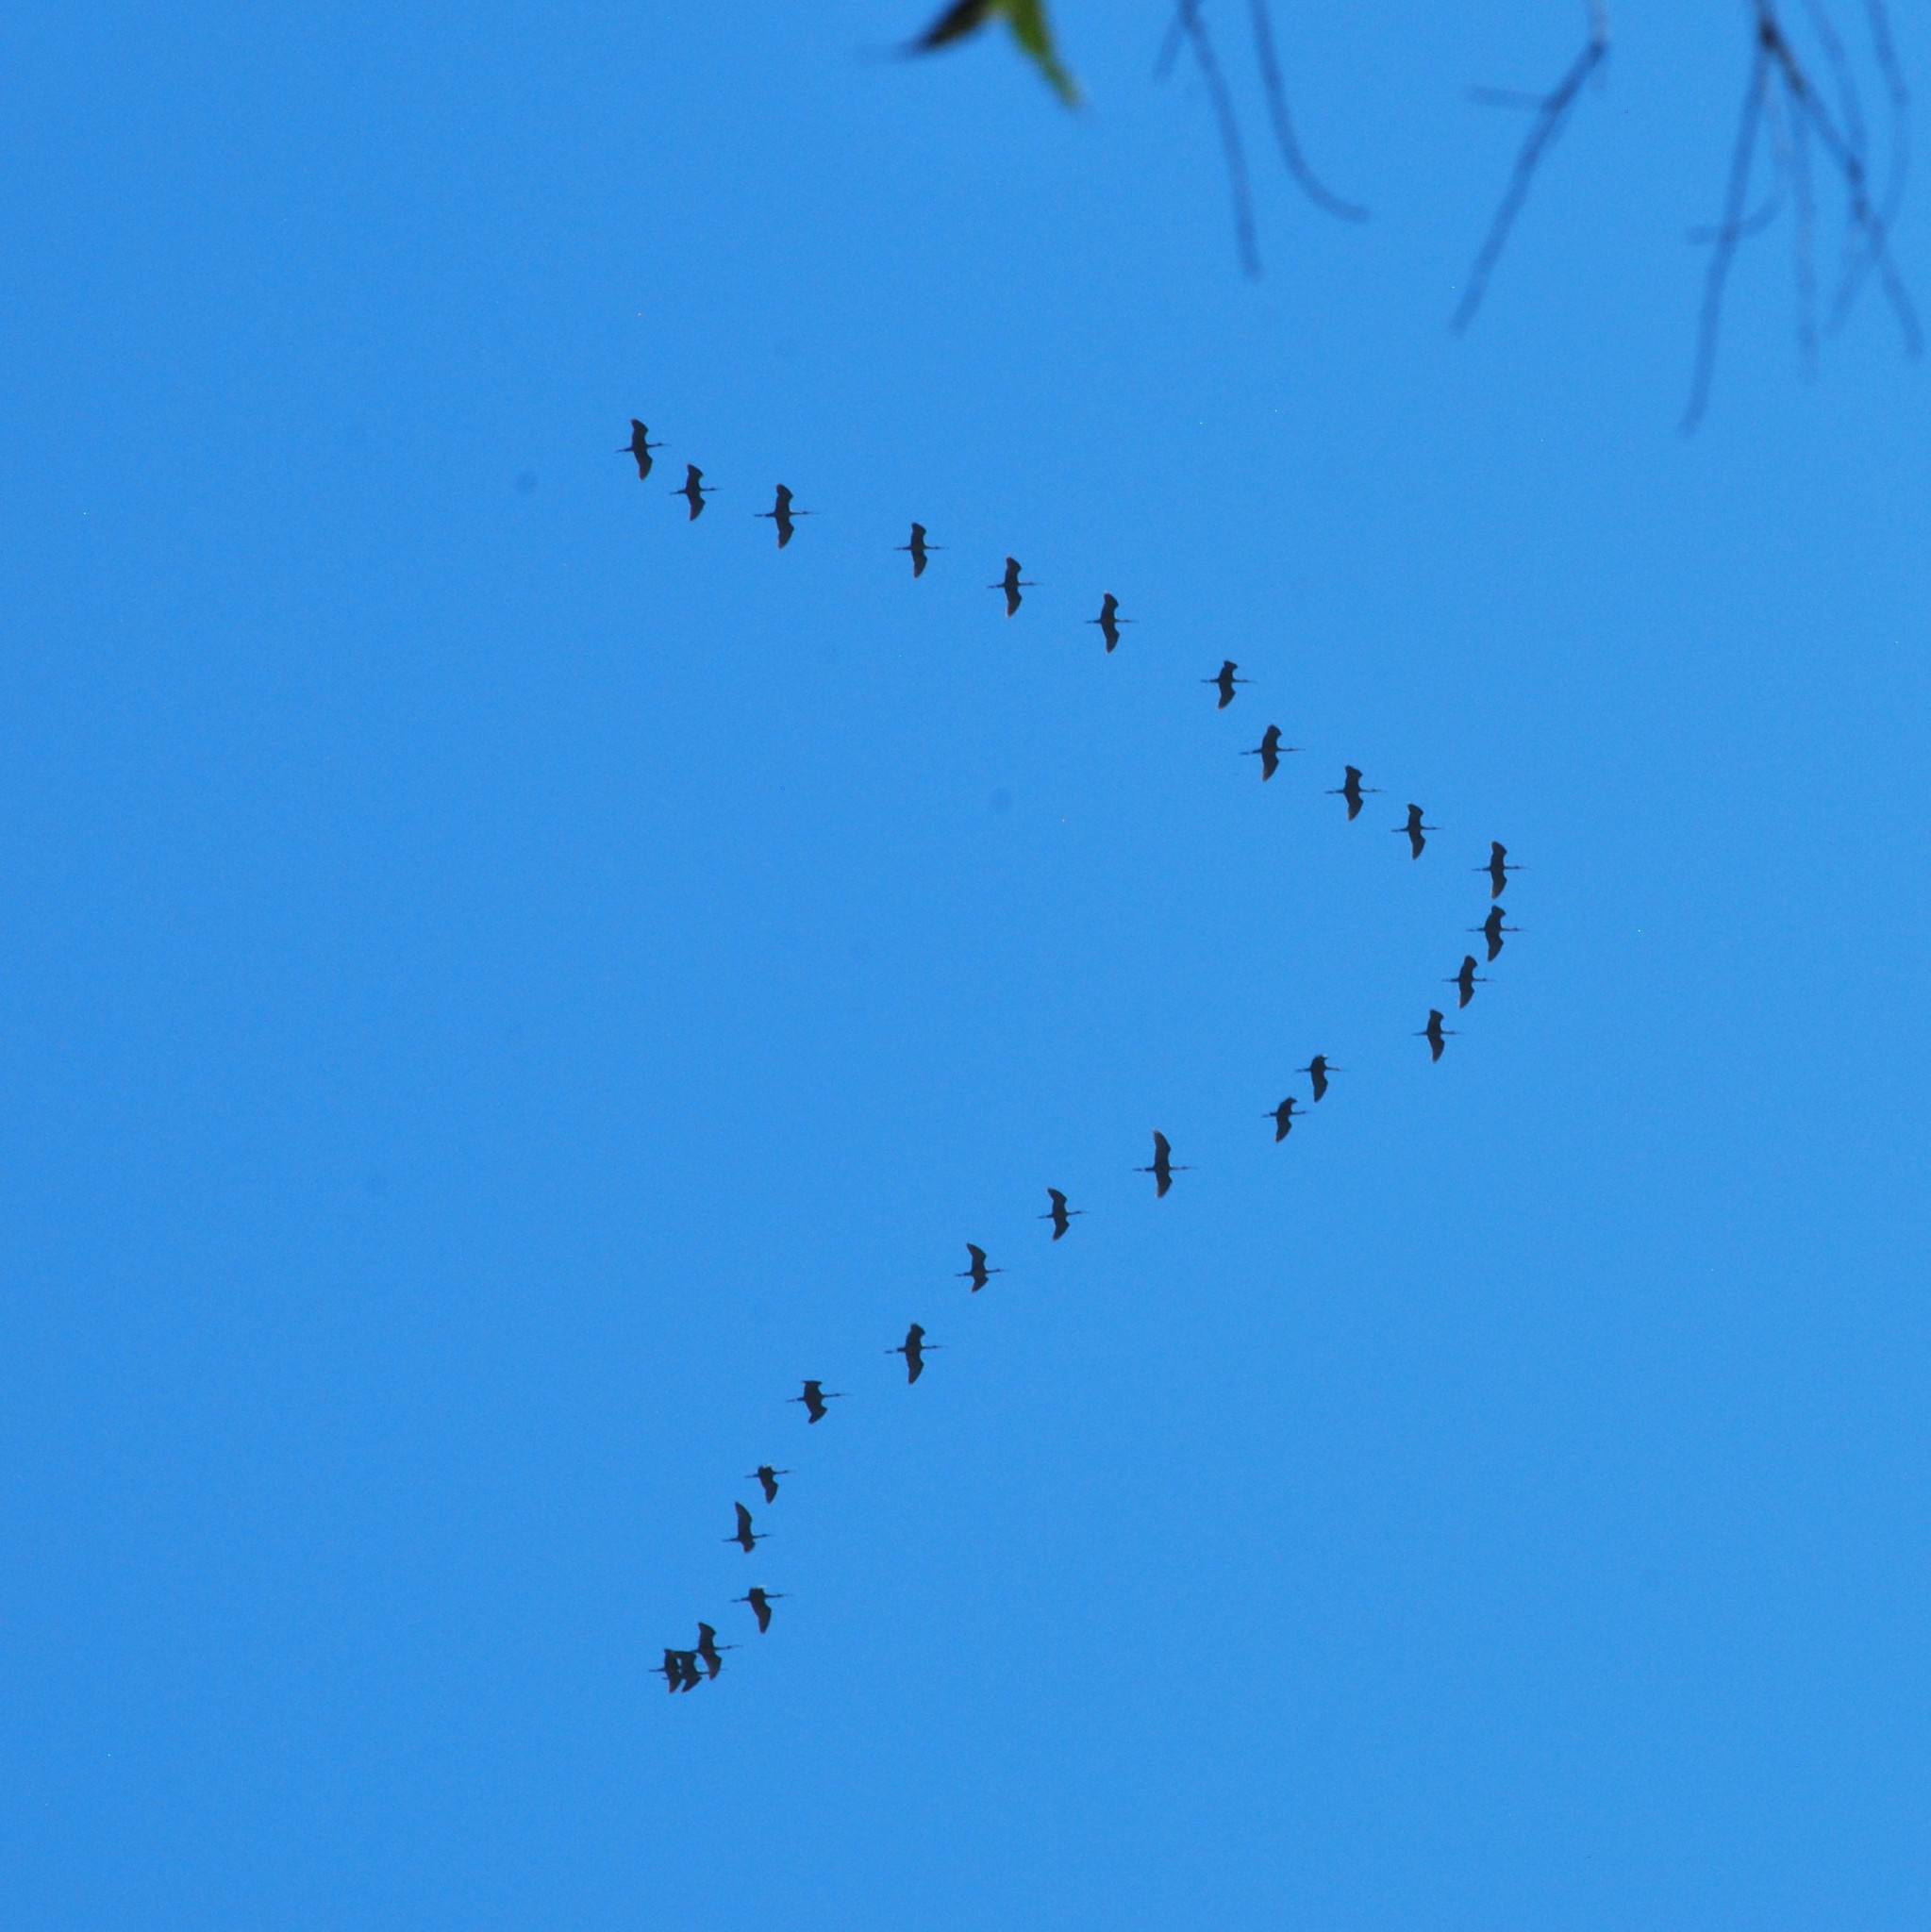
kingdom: Animalia
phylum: Chordata
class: Aves
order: Pelecaniformes
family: Threskiornithidae
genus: Plegadis
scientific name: Plegadis chihi
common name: White-faced ibis
